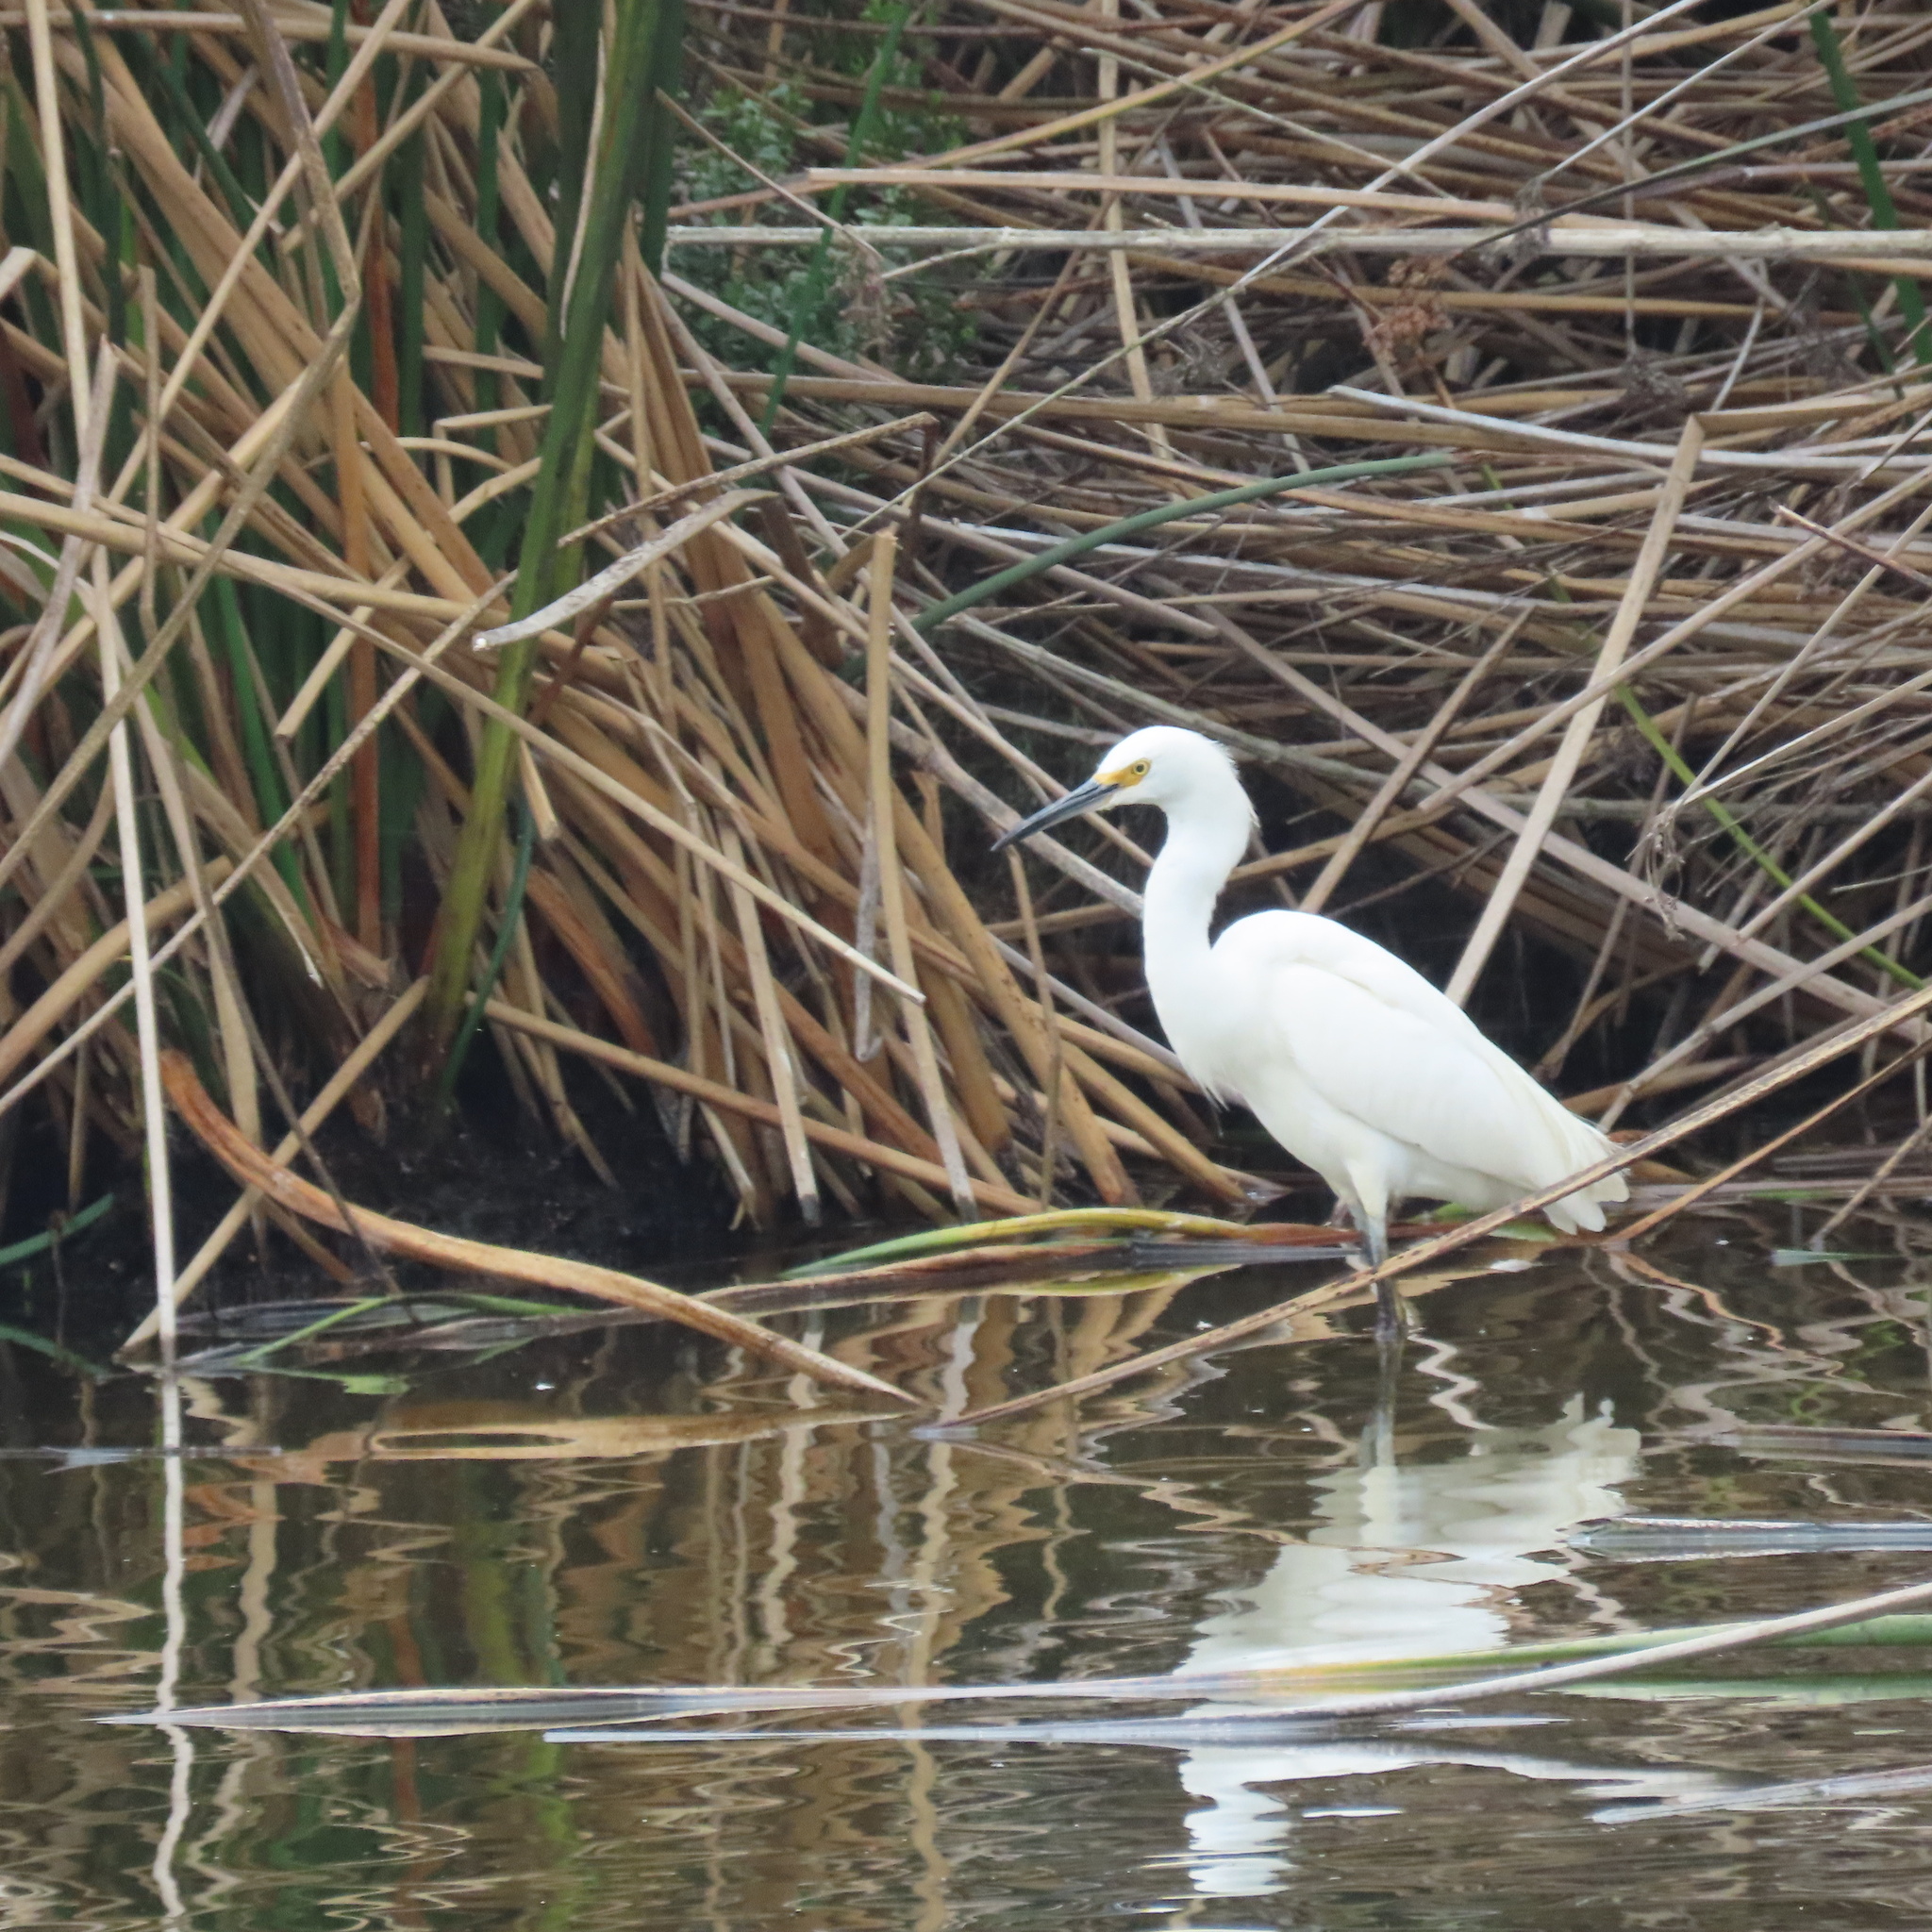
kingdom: Animalia
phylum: Chordata
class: Aves
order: Pelecaniformes
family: Ardeidae
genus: Egretta
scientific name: Egretta thula
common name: Snowy egret
